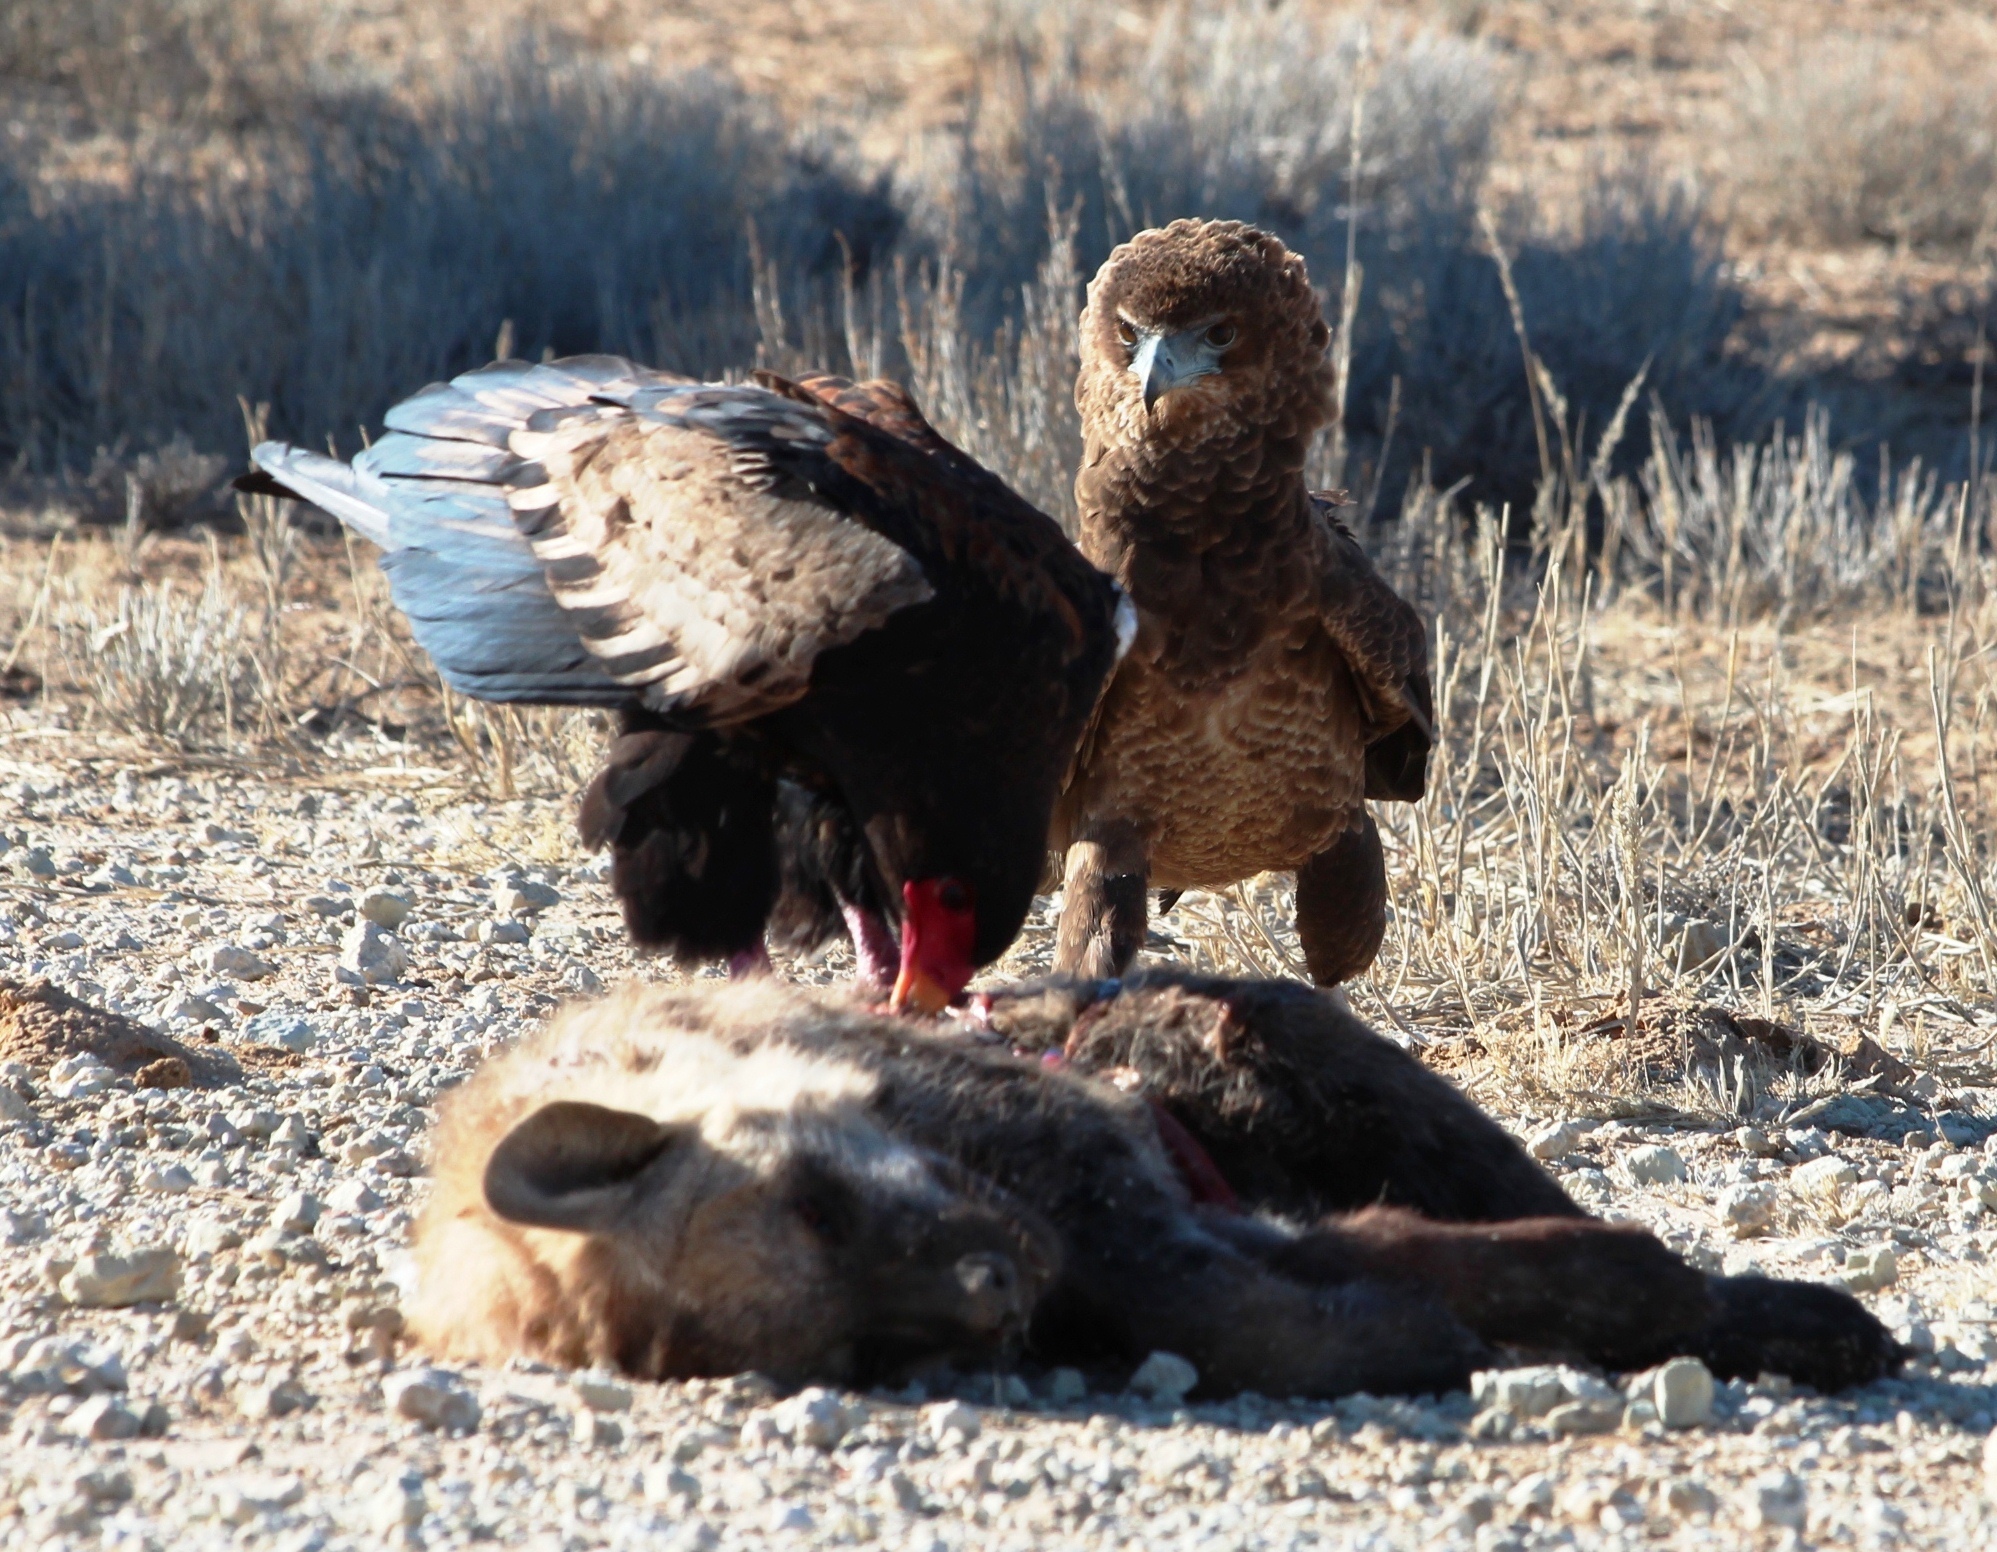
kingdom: Animalia
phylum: Chordata
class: Aves
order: Accipitriformes
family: Accipitridae
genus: Terathopius
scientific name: Terathopius ecaudatus
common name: Bateleur
